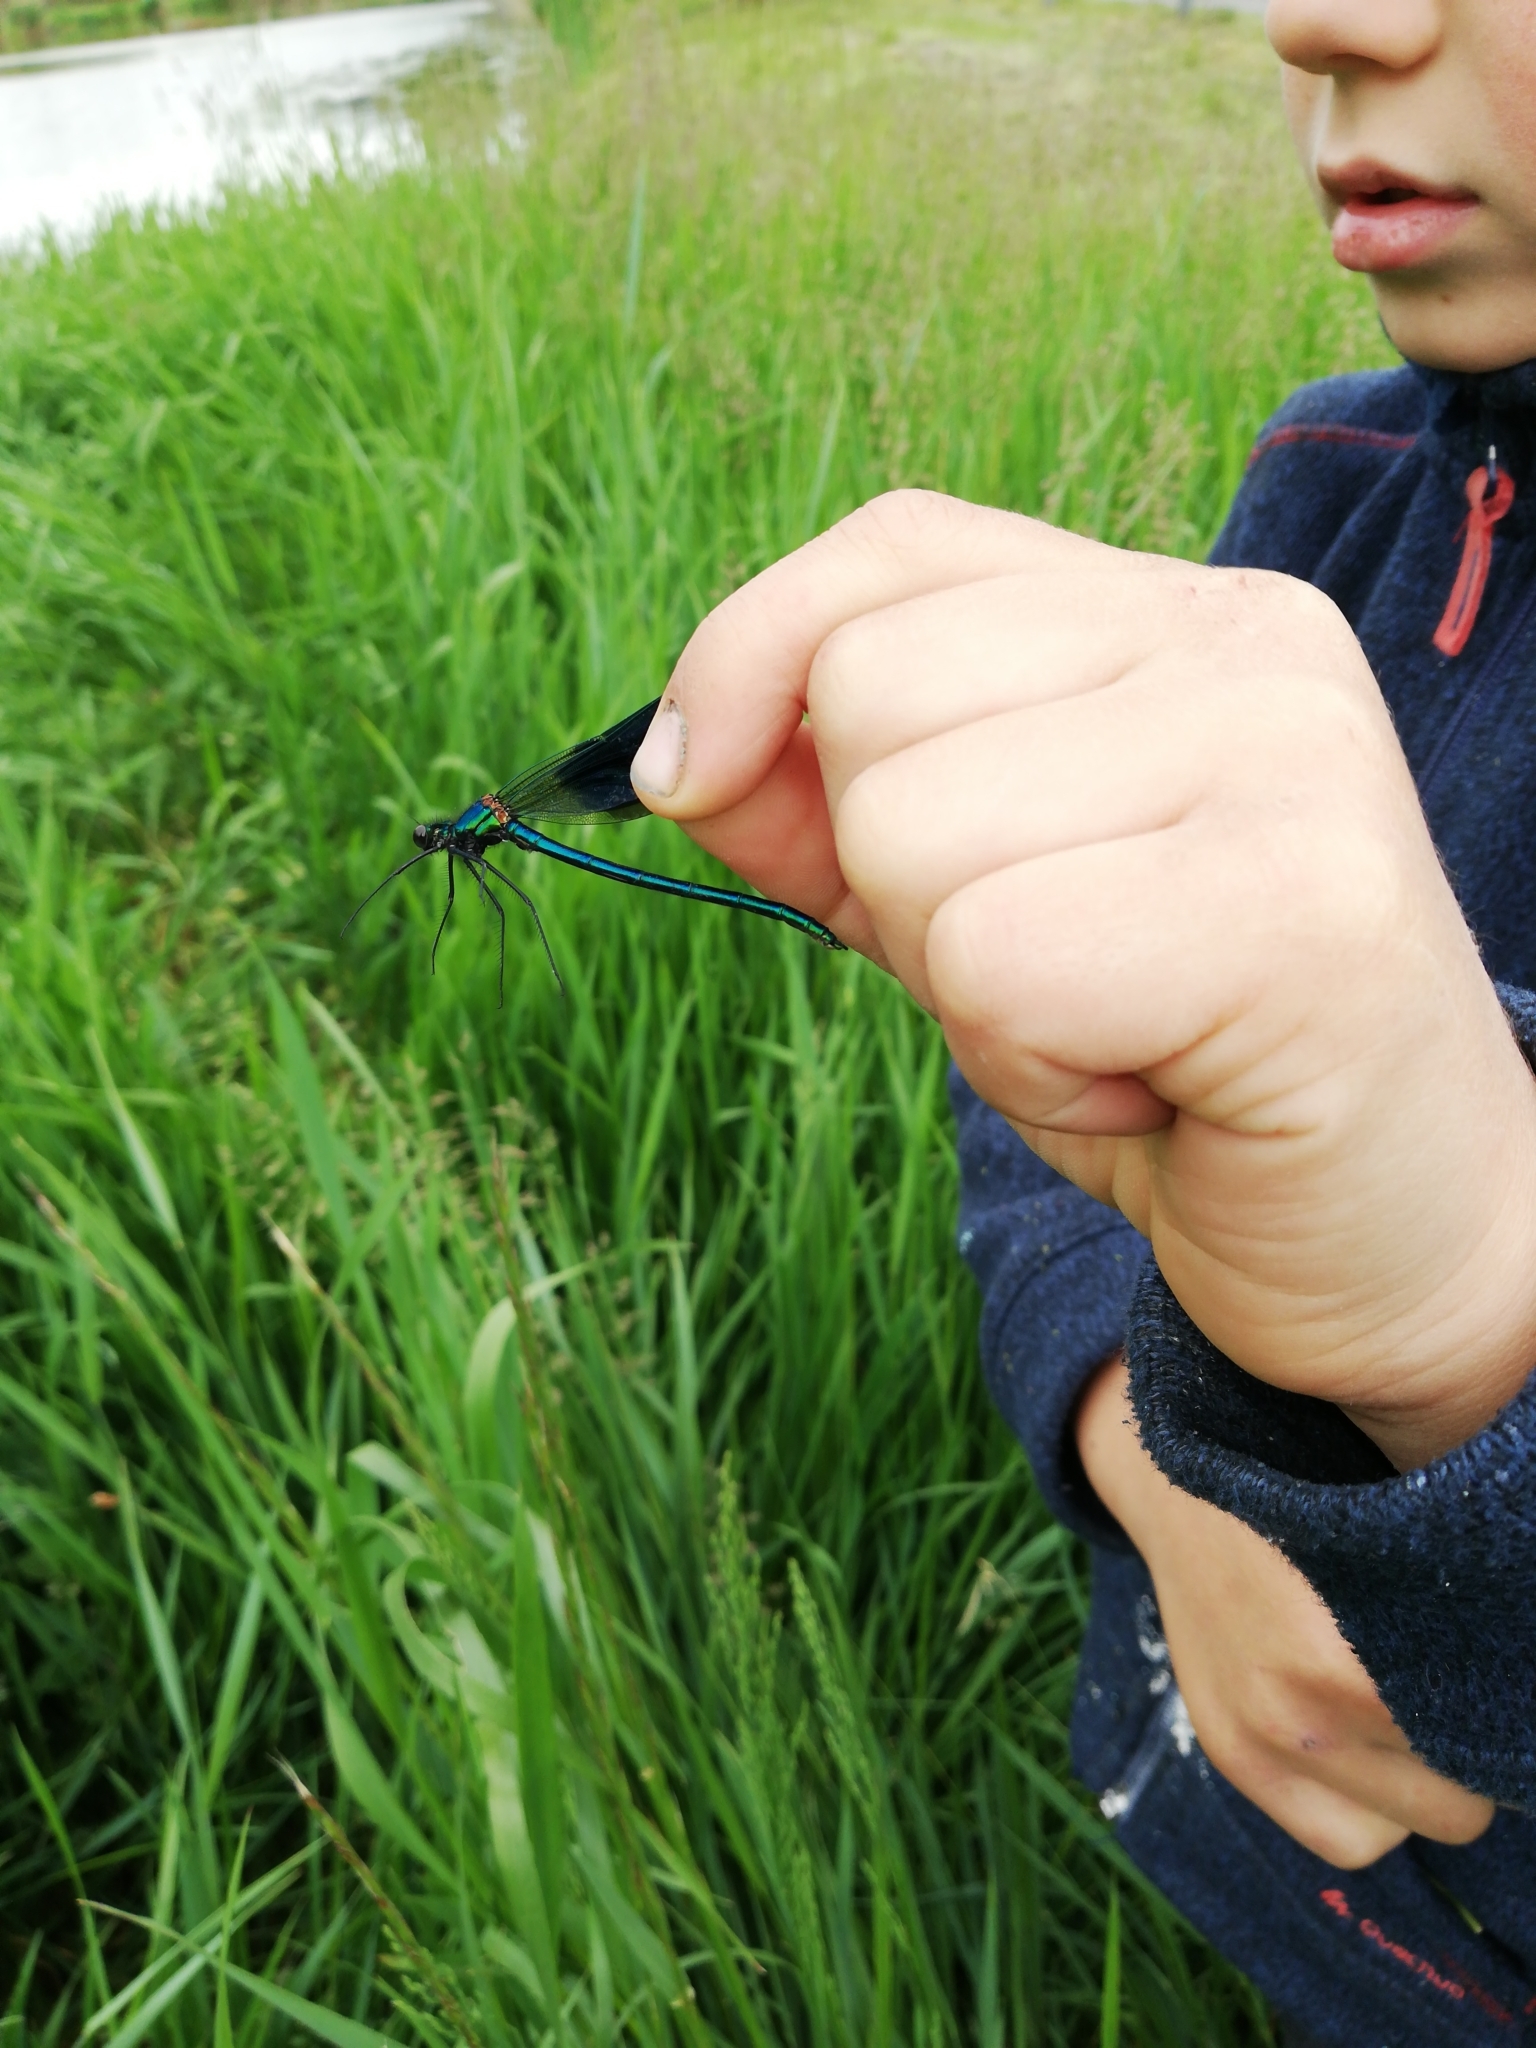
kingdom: Animalia
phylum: Arthropoda
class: Insecta
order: Odonata
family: Calopterygidae
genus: Calopteryx
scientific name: Calopteryx splendens
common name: Banded demoiselle
